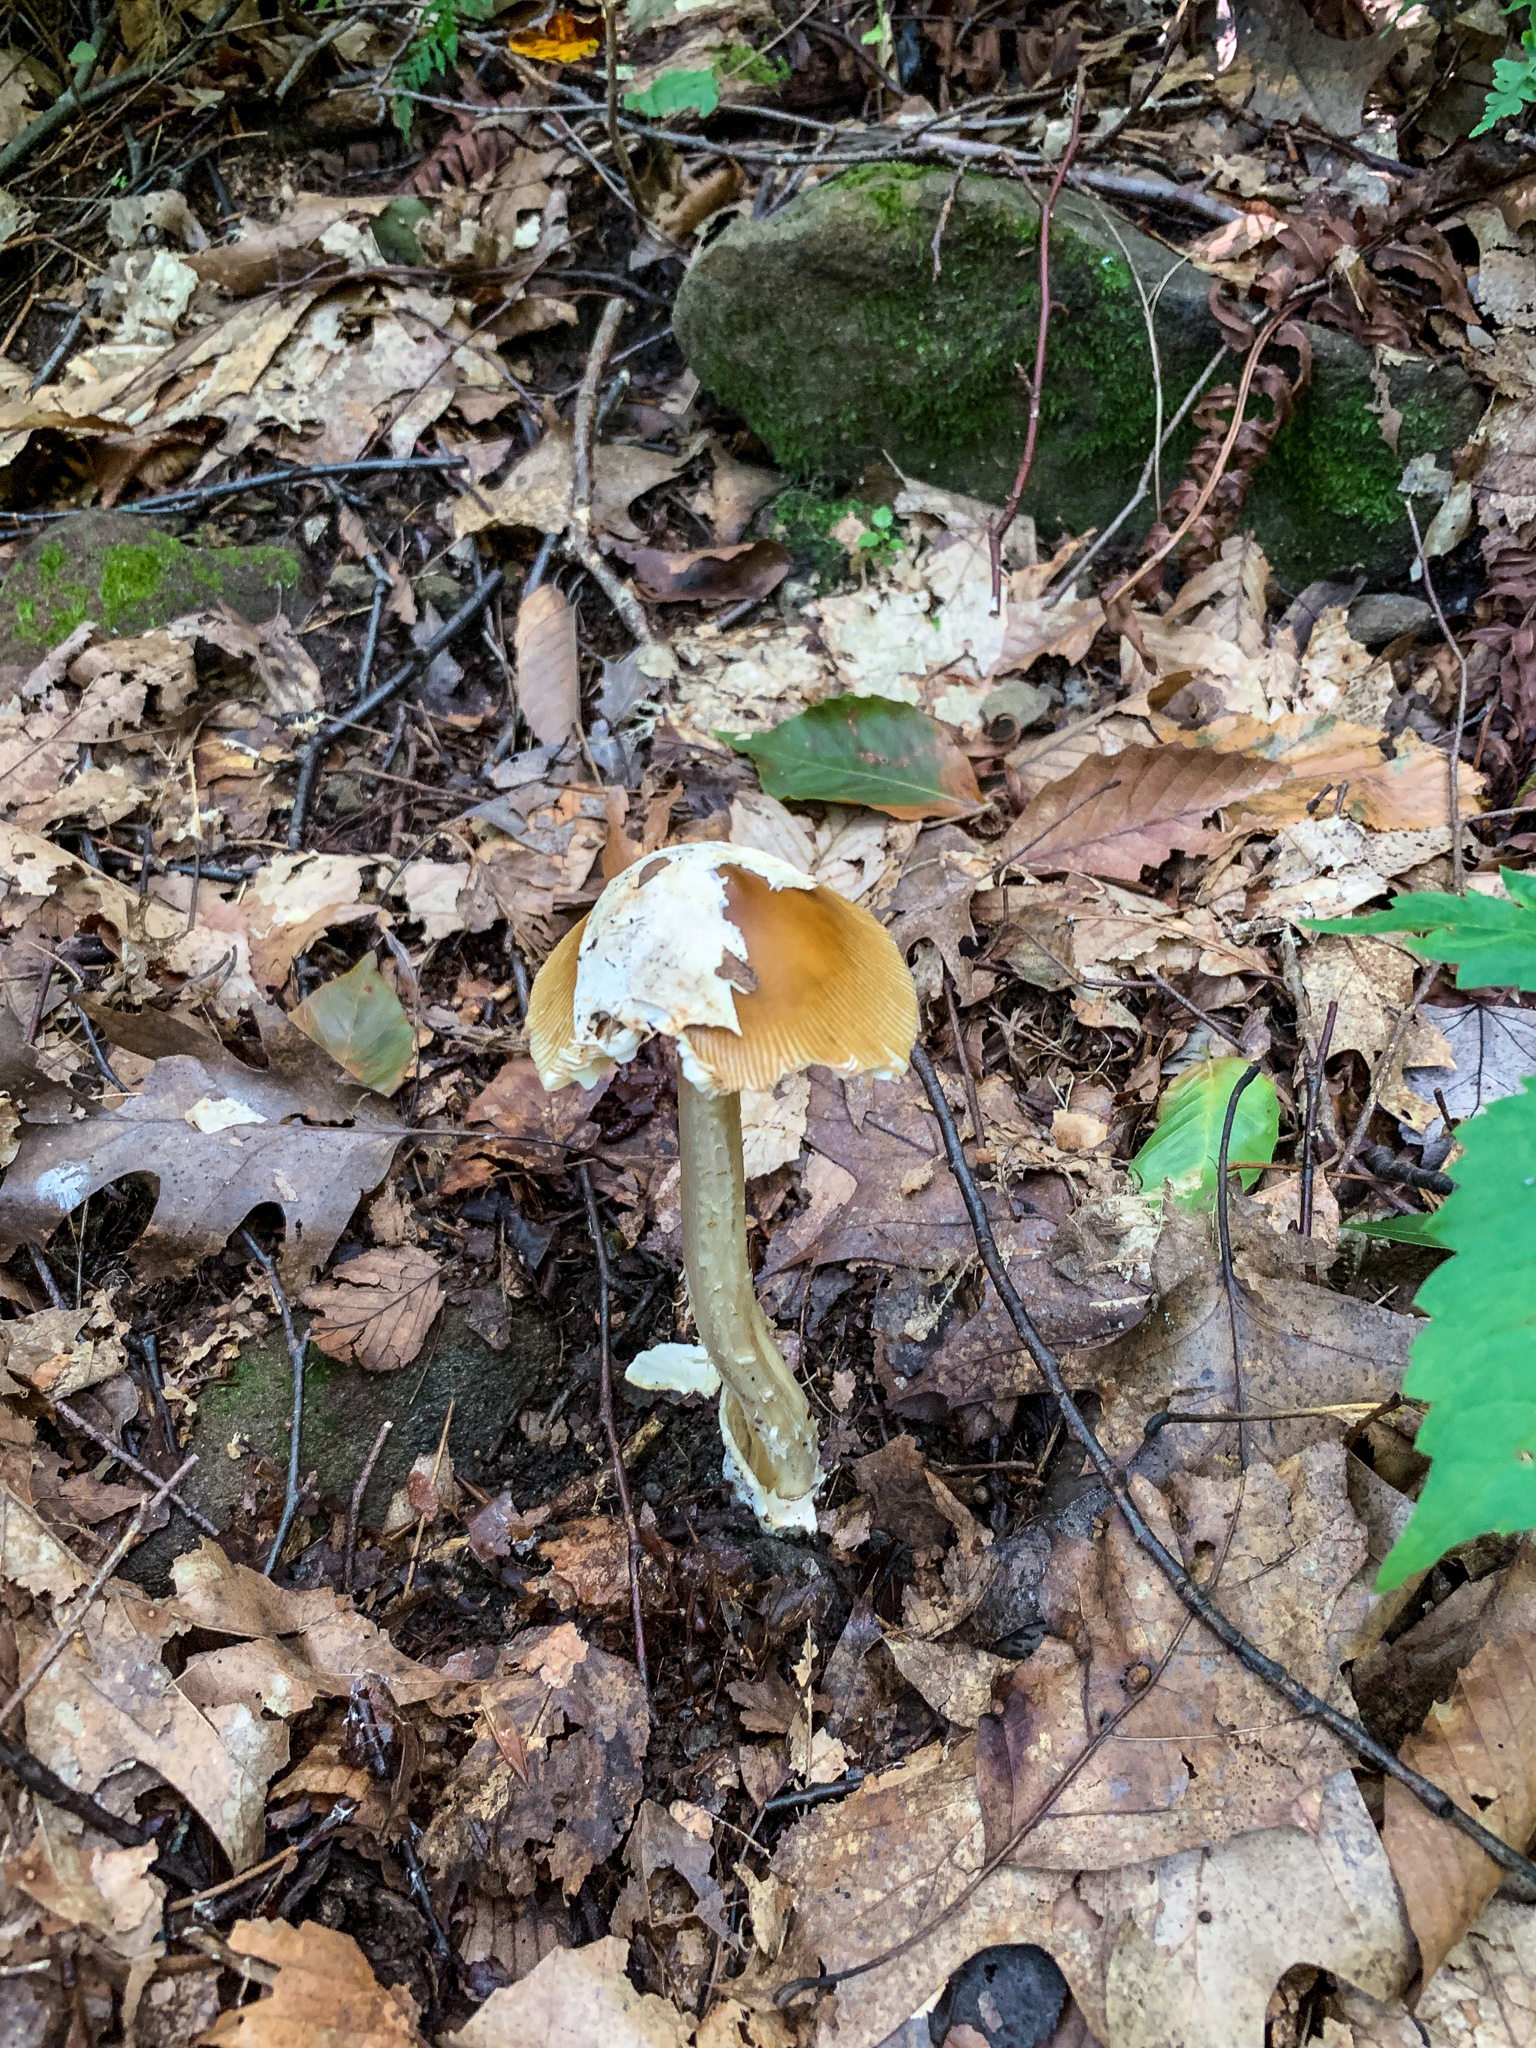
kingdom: Fungi
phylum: Basidiomycota
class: Agaricomycetes
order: Agaricales
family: Amanitaceae
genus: Amanita
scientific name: Amanita fulva
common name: Tawny grisette
